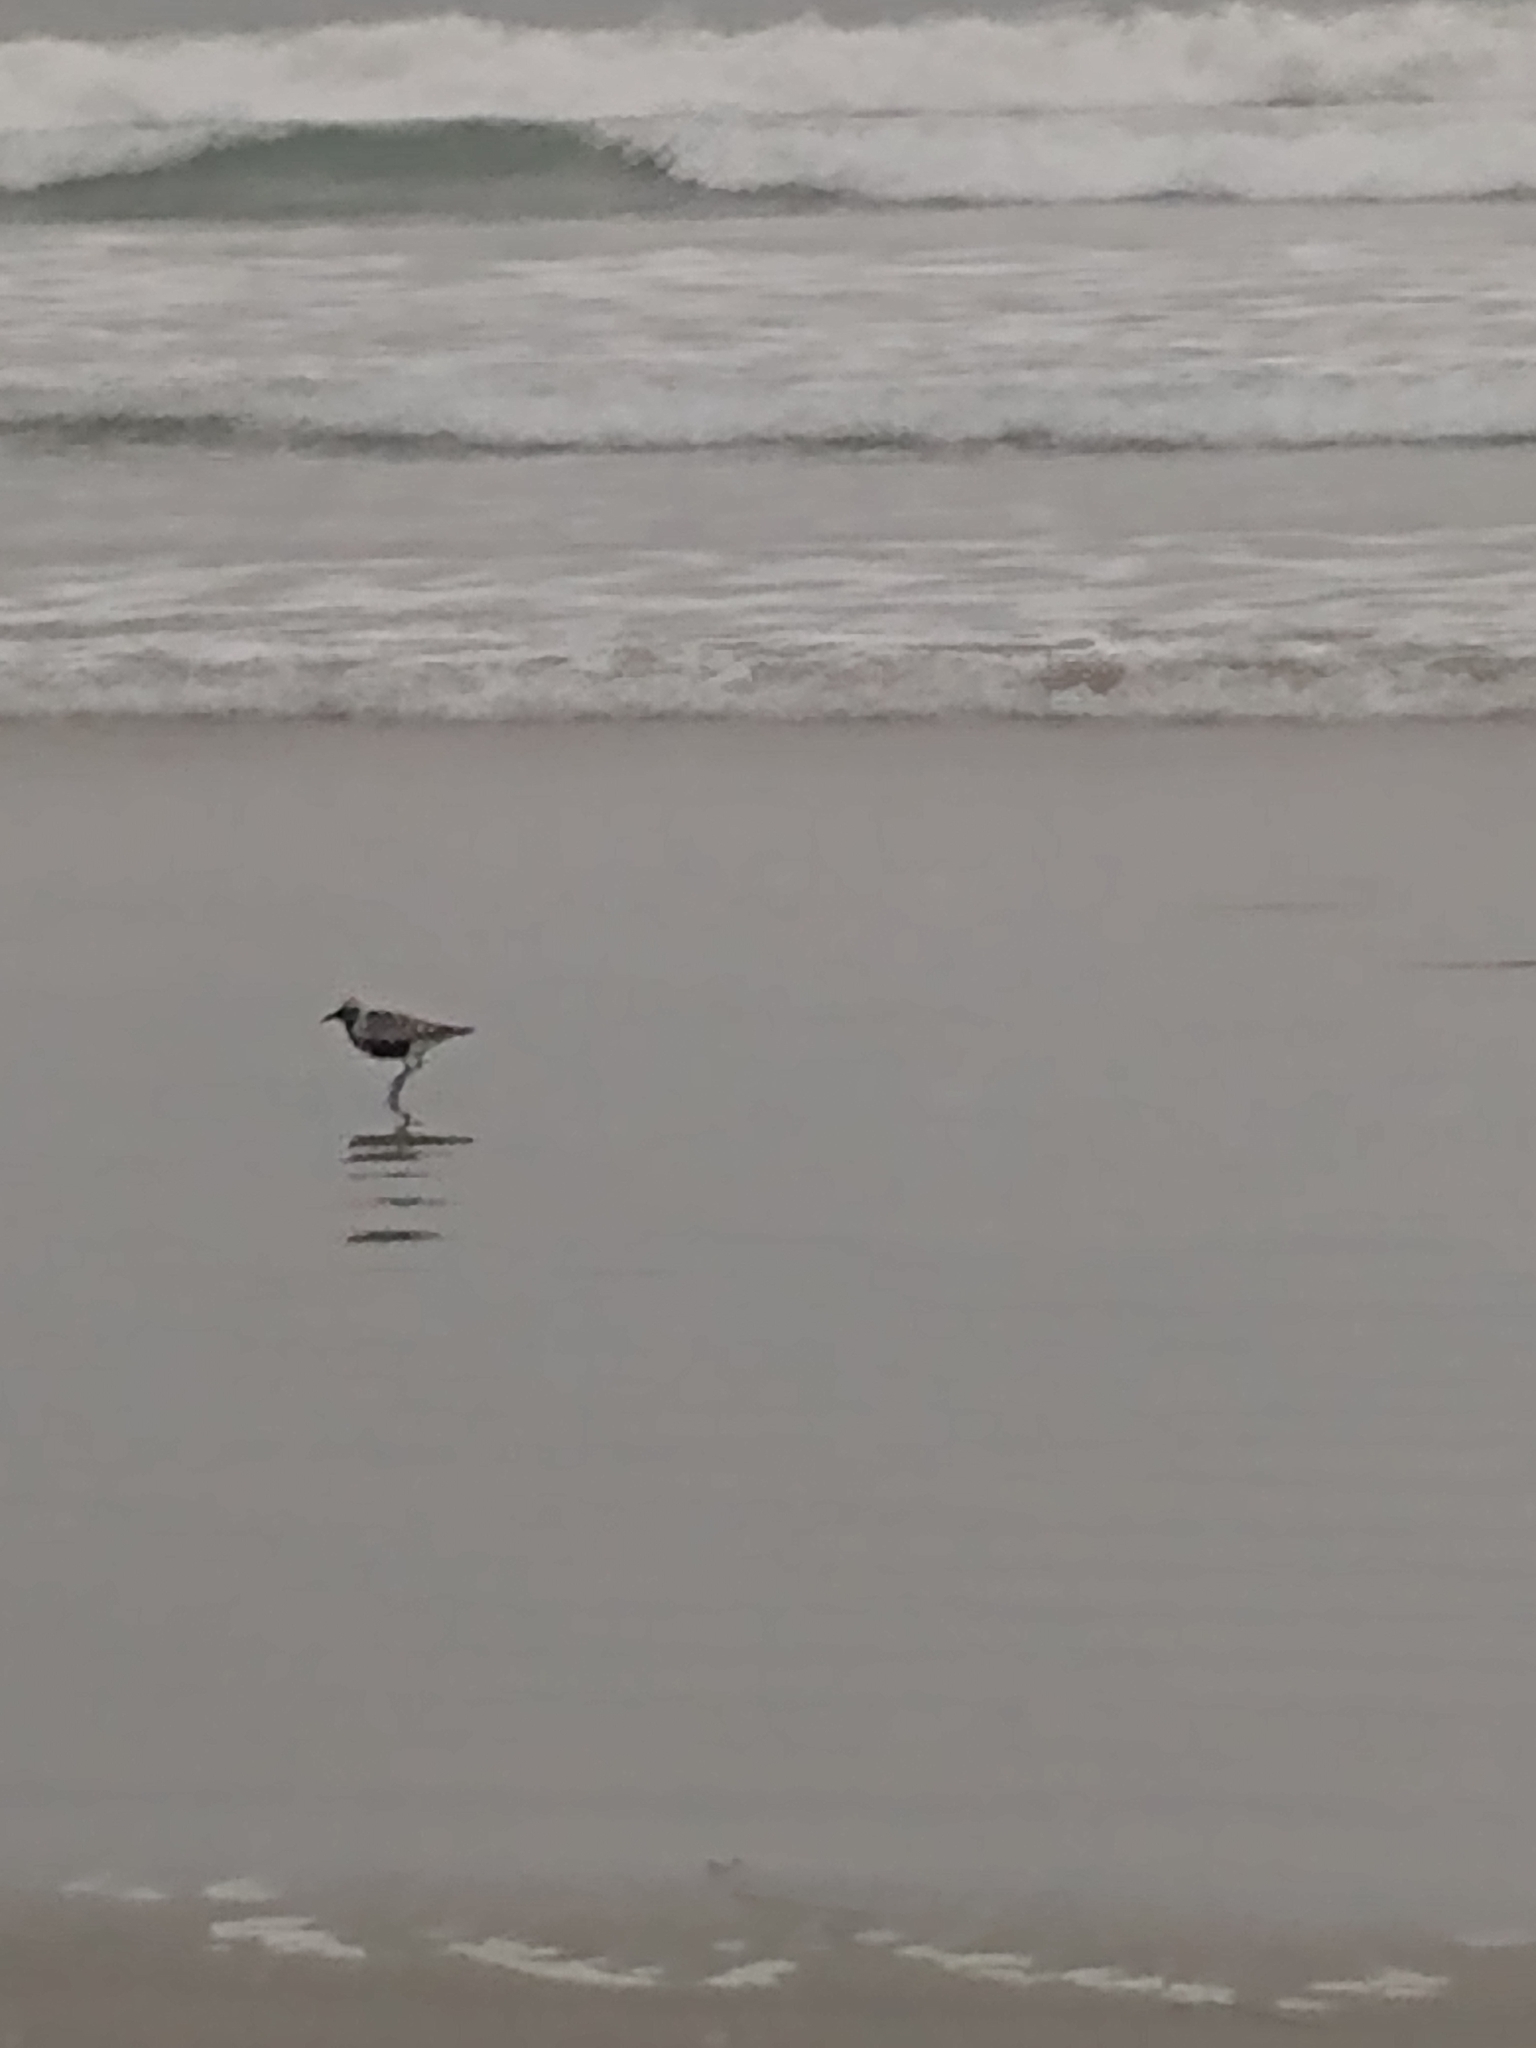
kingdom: Animalia
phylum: Chordata
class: Aves
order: Charadriiformes
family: Charadriidae
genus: Pluvialis
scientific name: Pluvialis squatarola
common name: Grey plover
